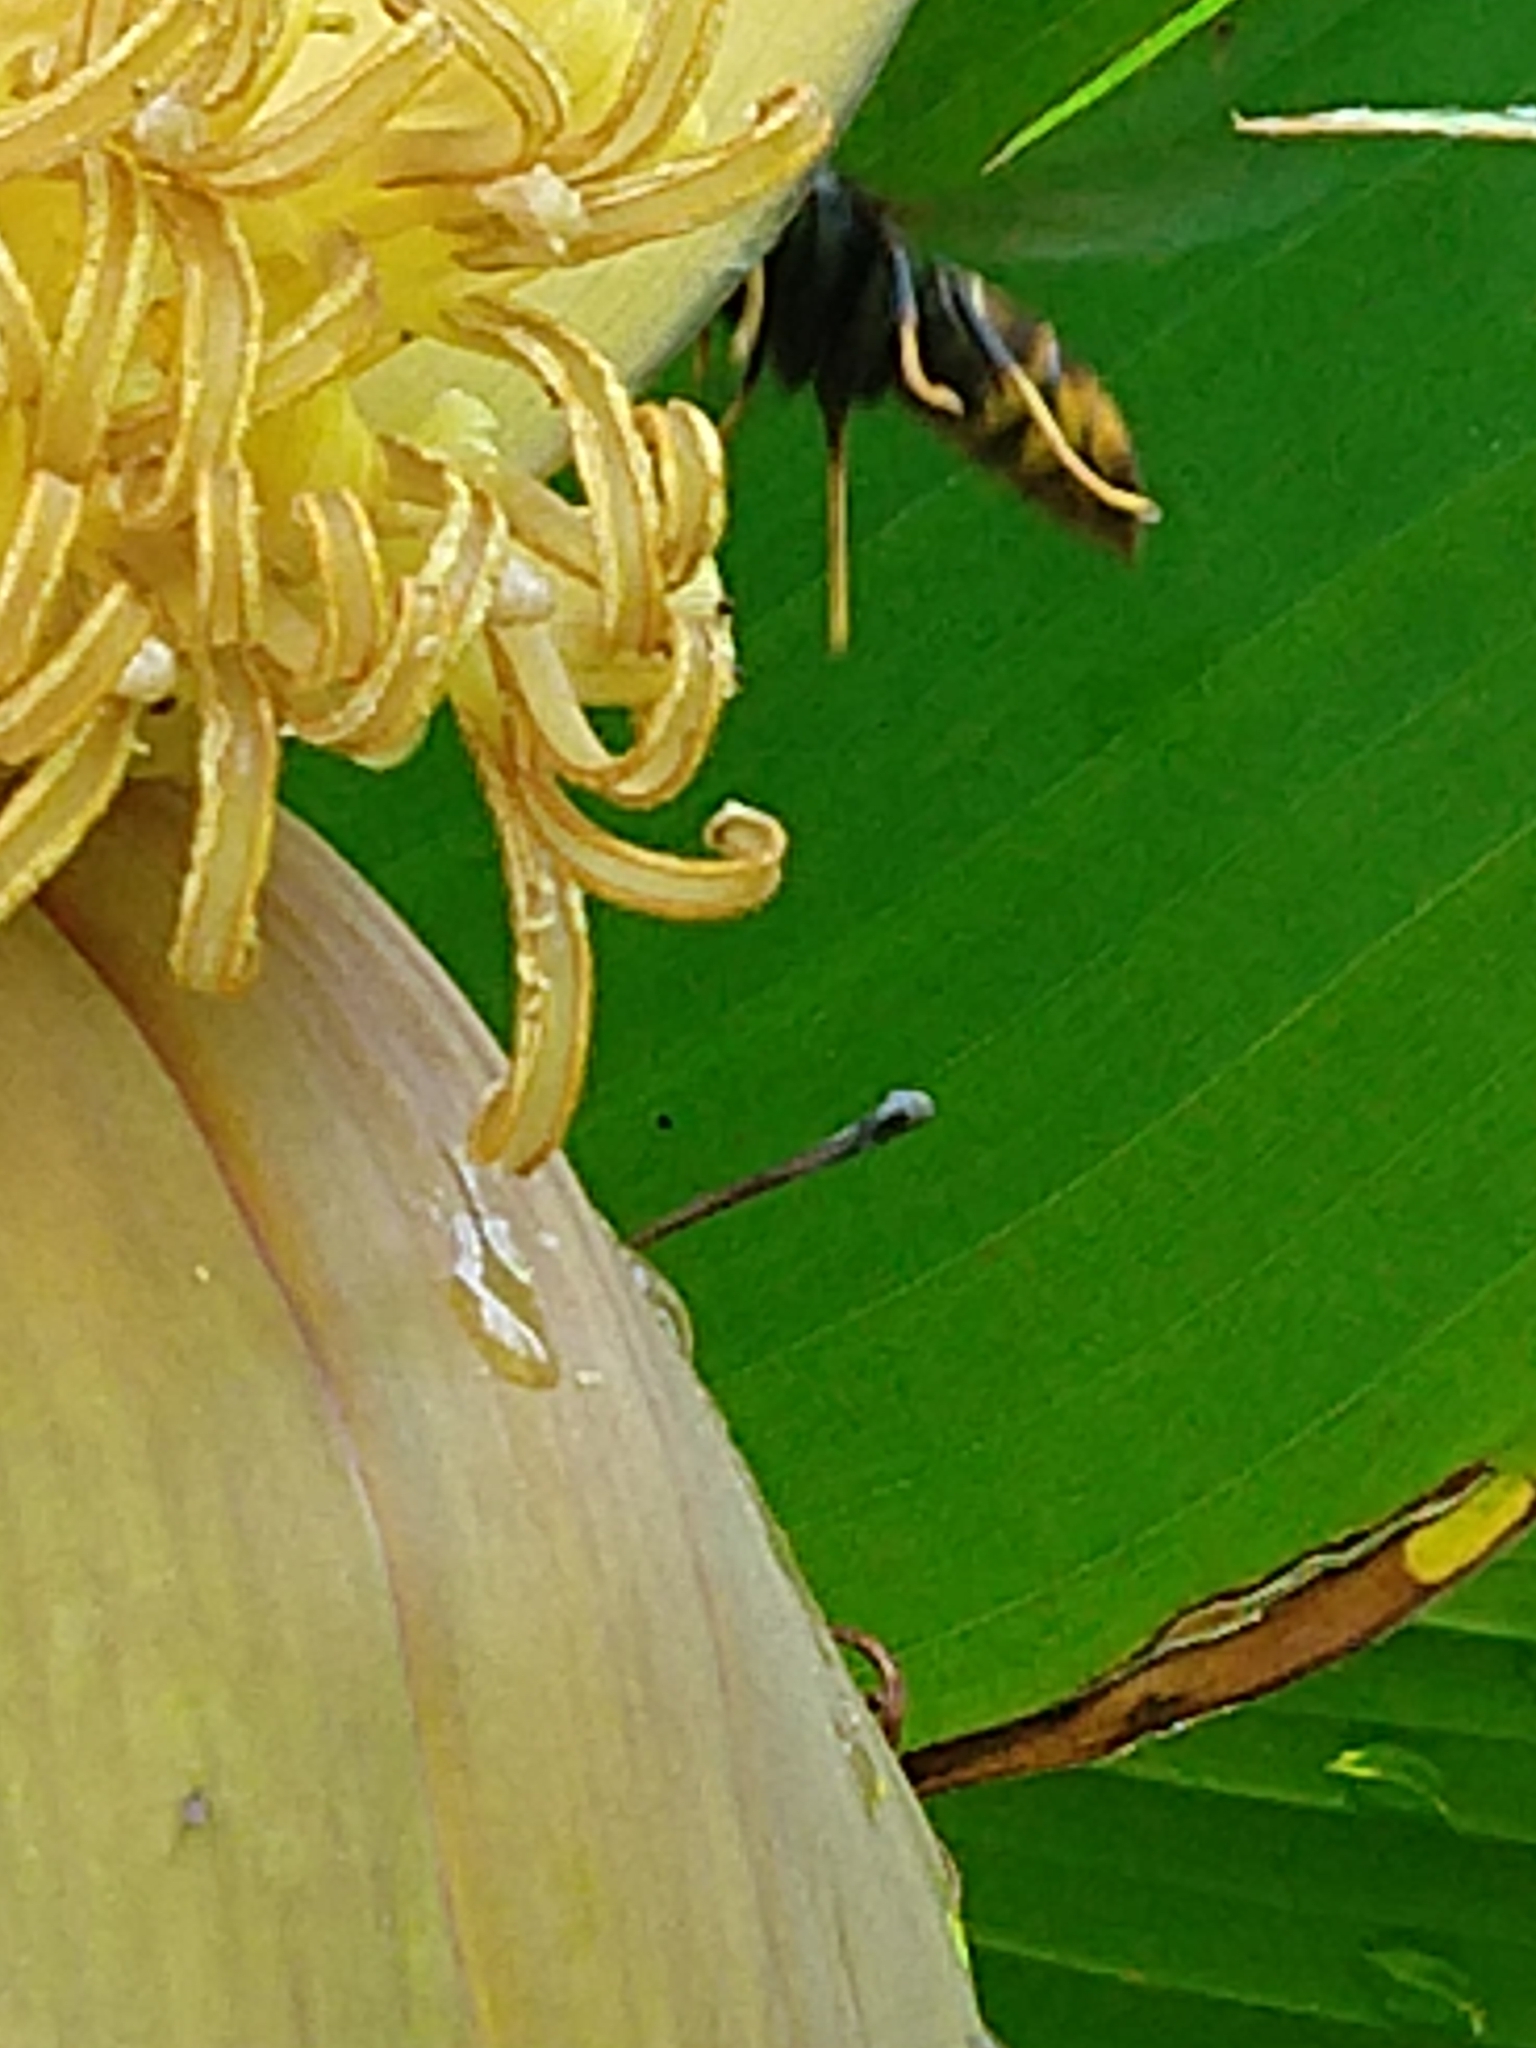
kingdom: Animalia
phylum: Arthropoda
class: Insecta
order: Hymenoptera
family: Vespidae
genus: Vespa
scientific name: Vespa velutina
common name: Asian hornet
